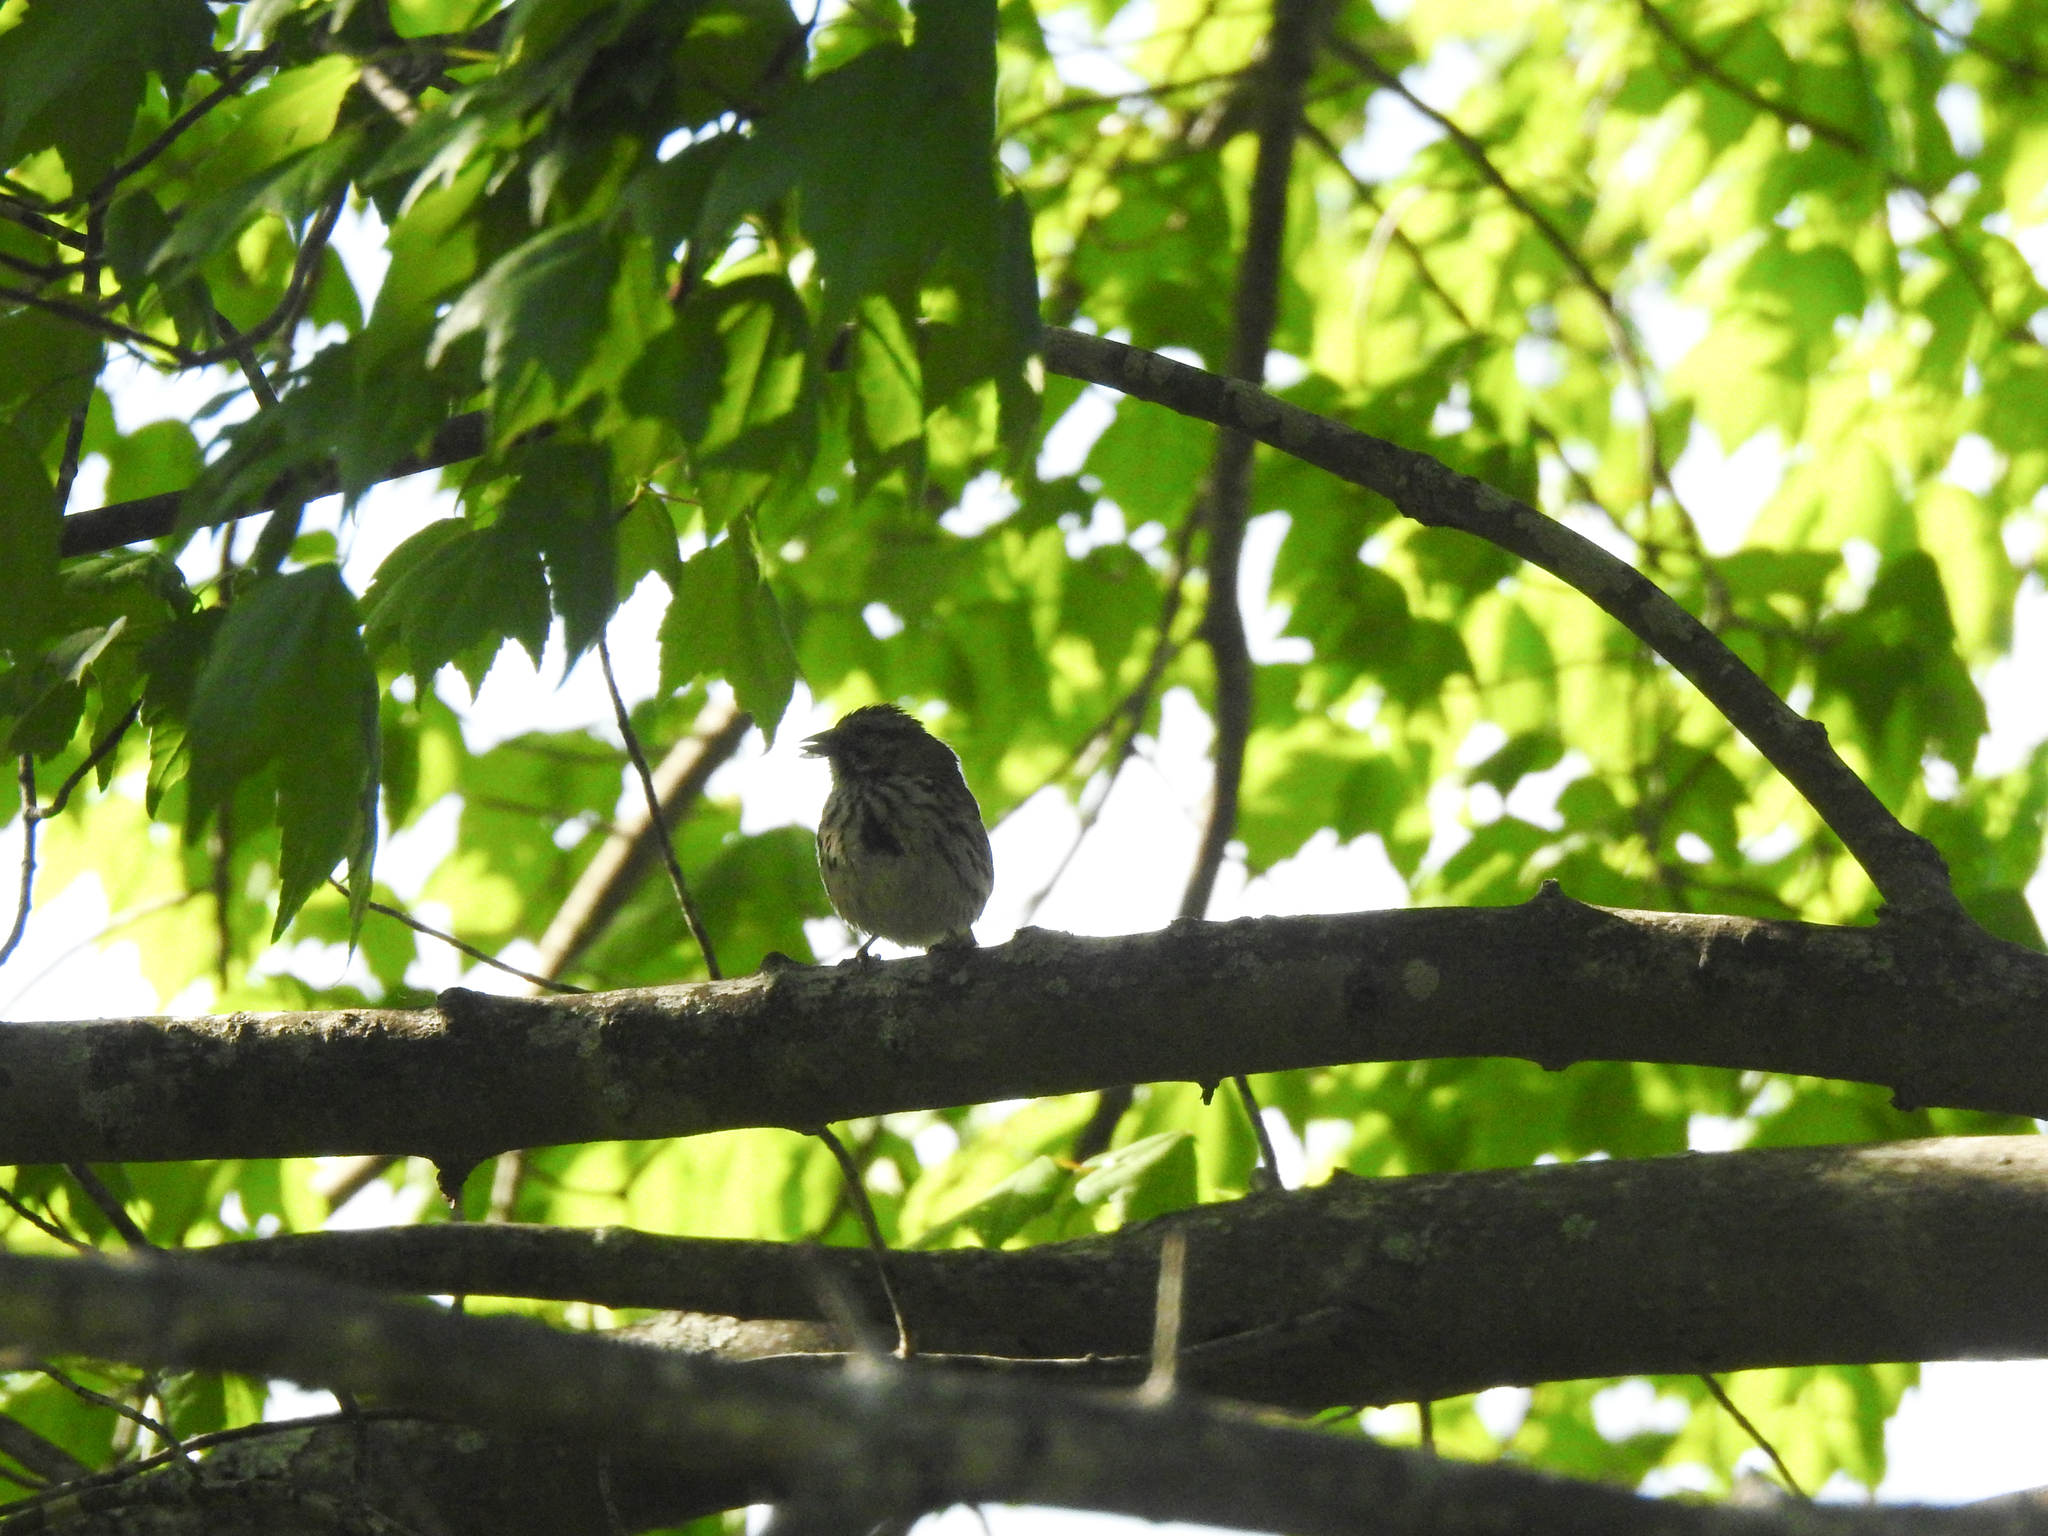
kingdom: Animalia
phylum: Chordata
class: Aves
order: Passeriformes
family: Passerellidae
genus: Melospiza
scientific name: Melospiza melodia
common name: Song sparrow
